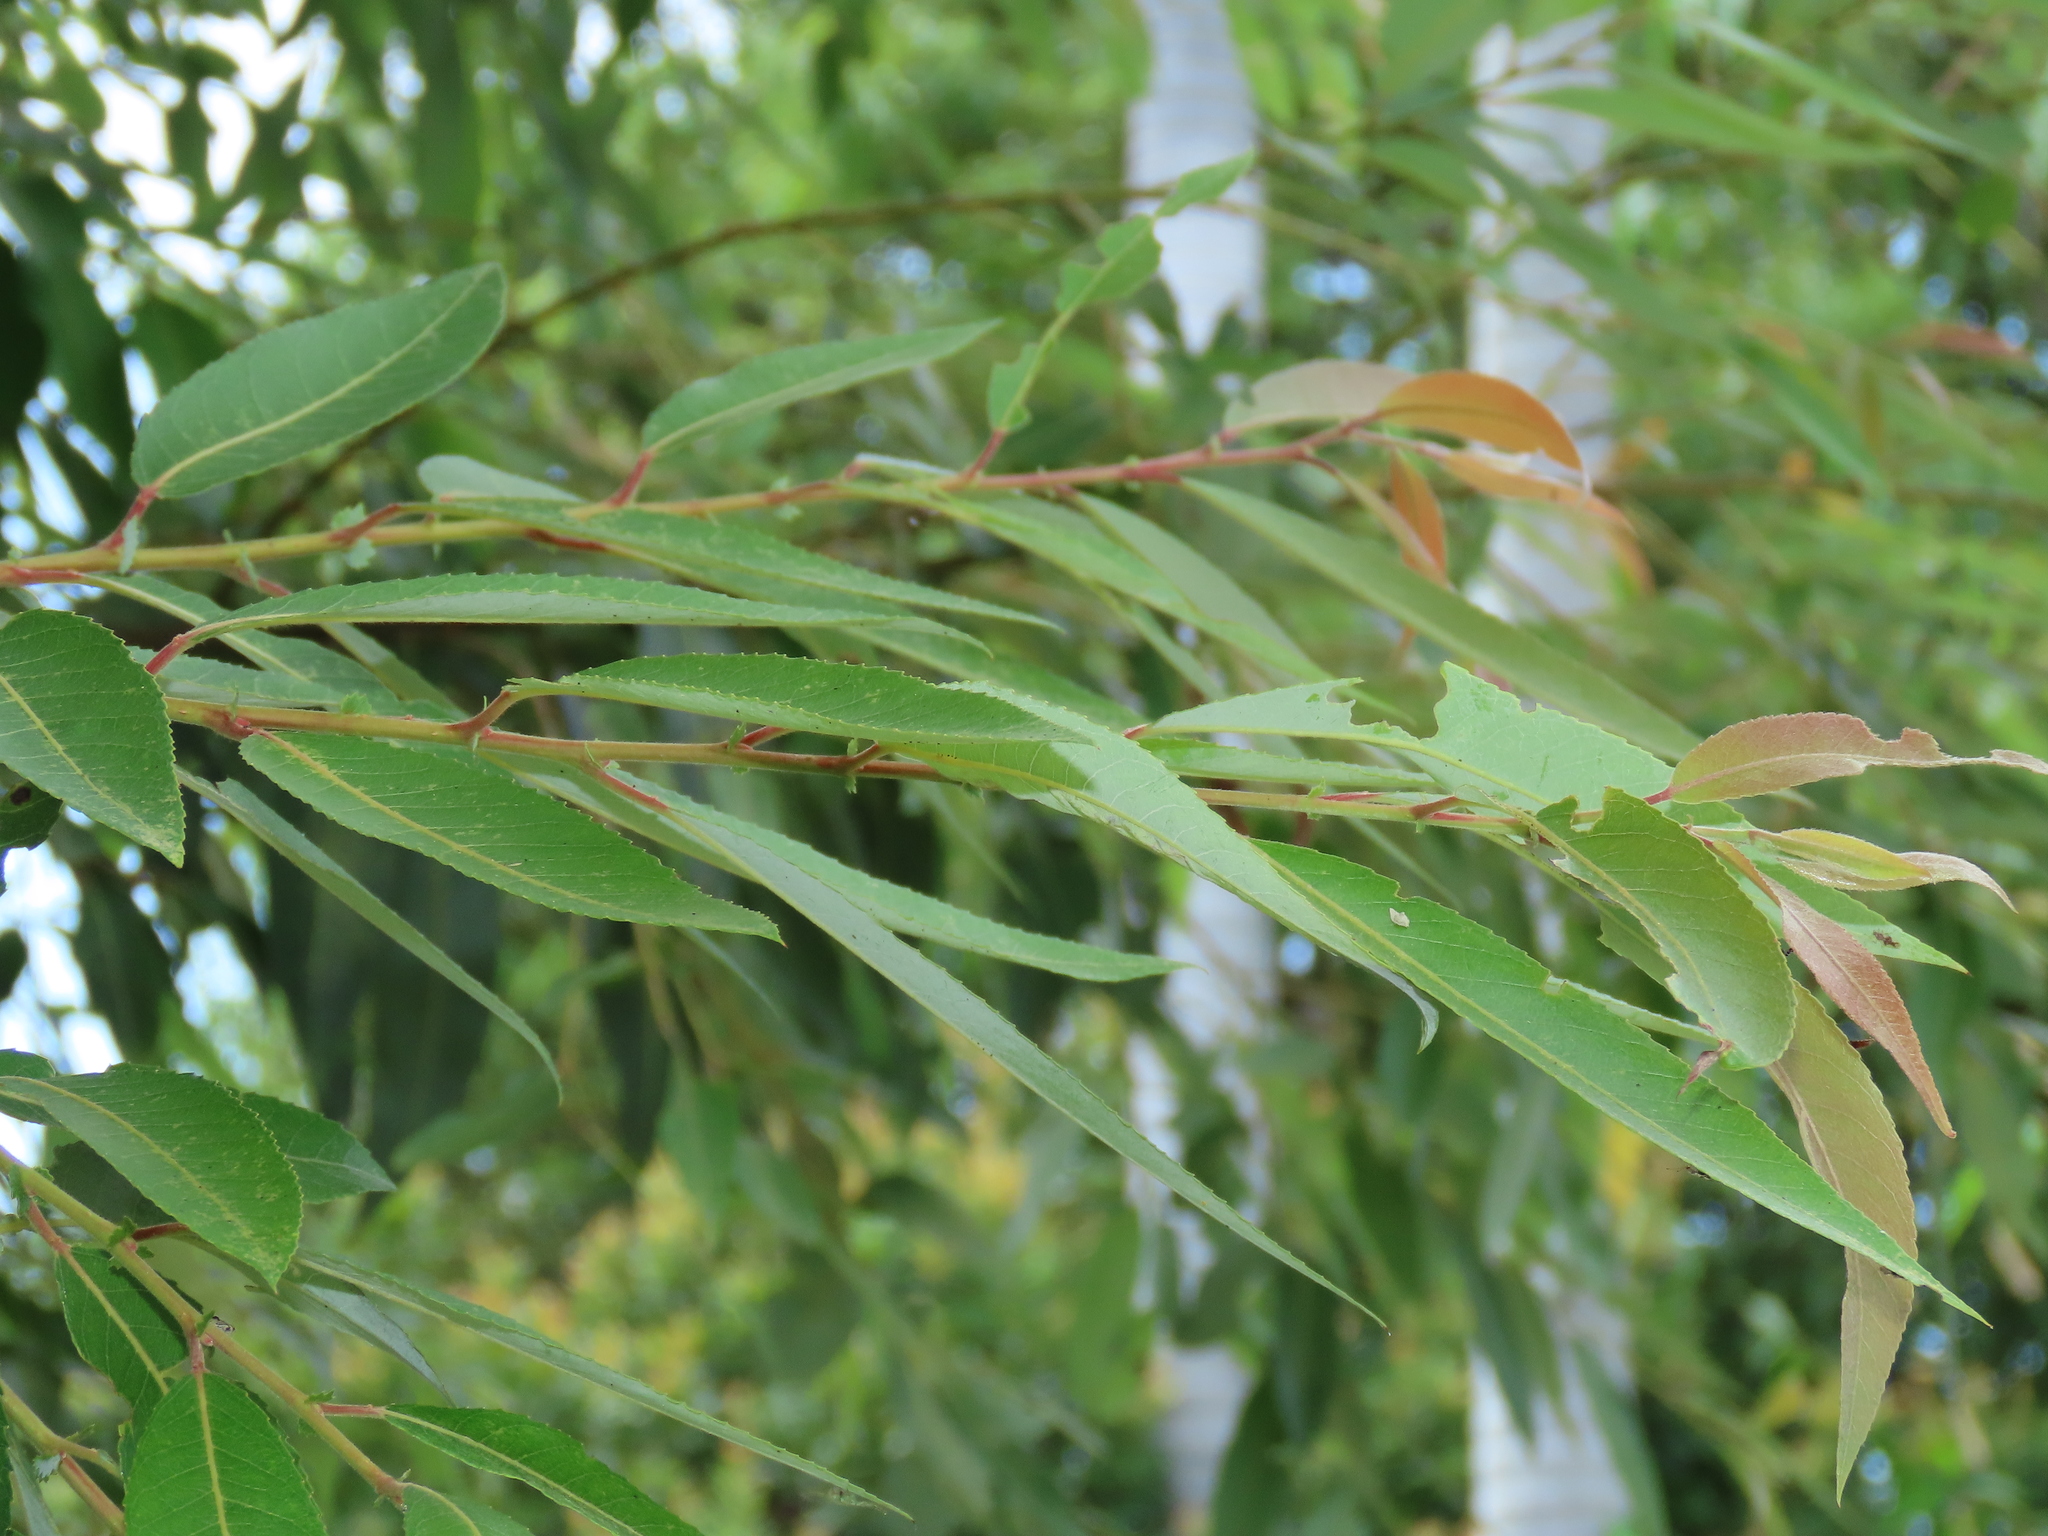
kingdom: Plantae
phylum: Tracheophyta
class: Magnoliopsida
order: Malpighiales
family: Salicaceae
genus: Salix
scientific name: Salix mesnyi
